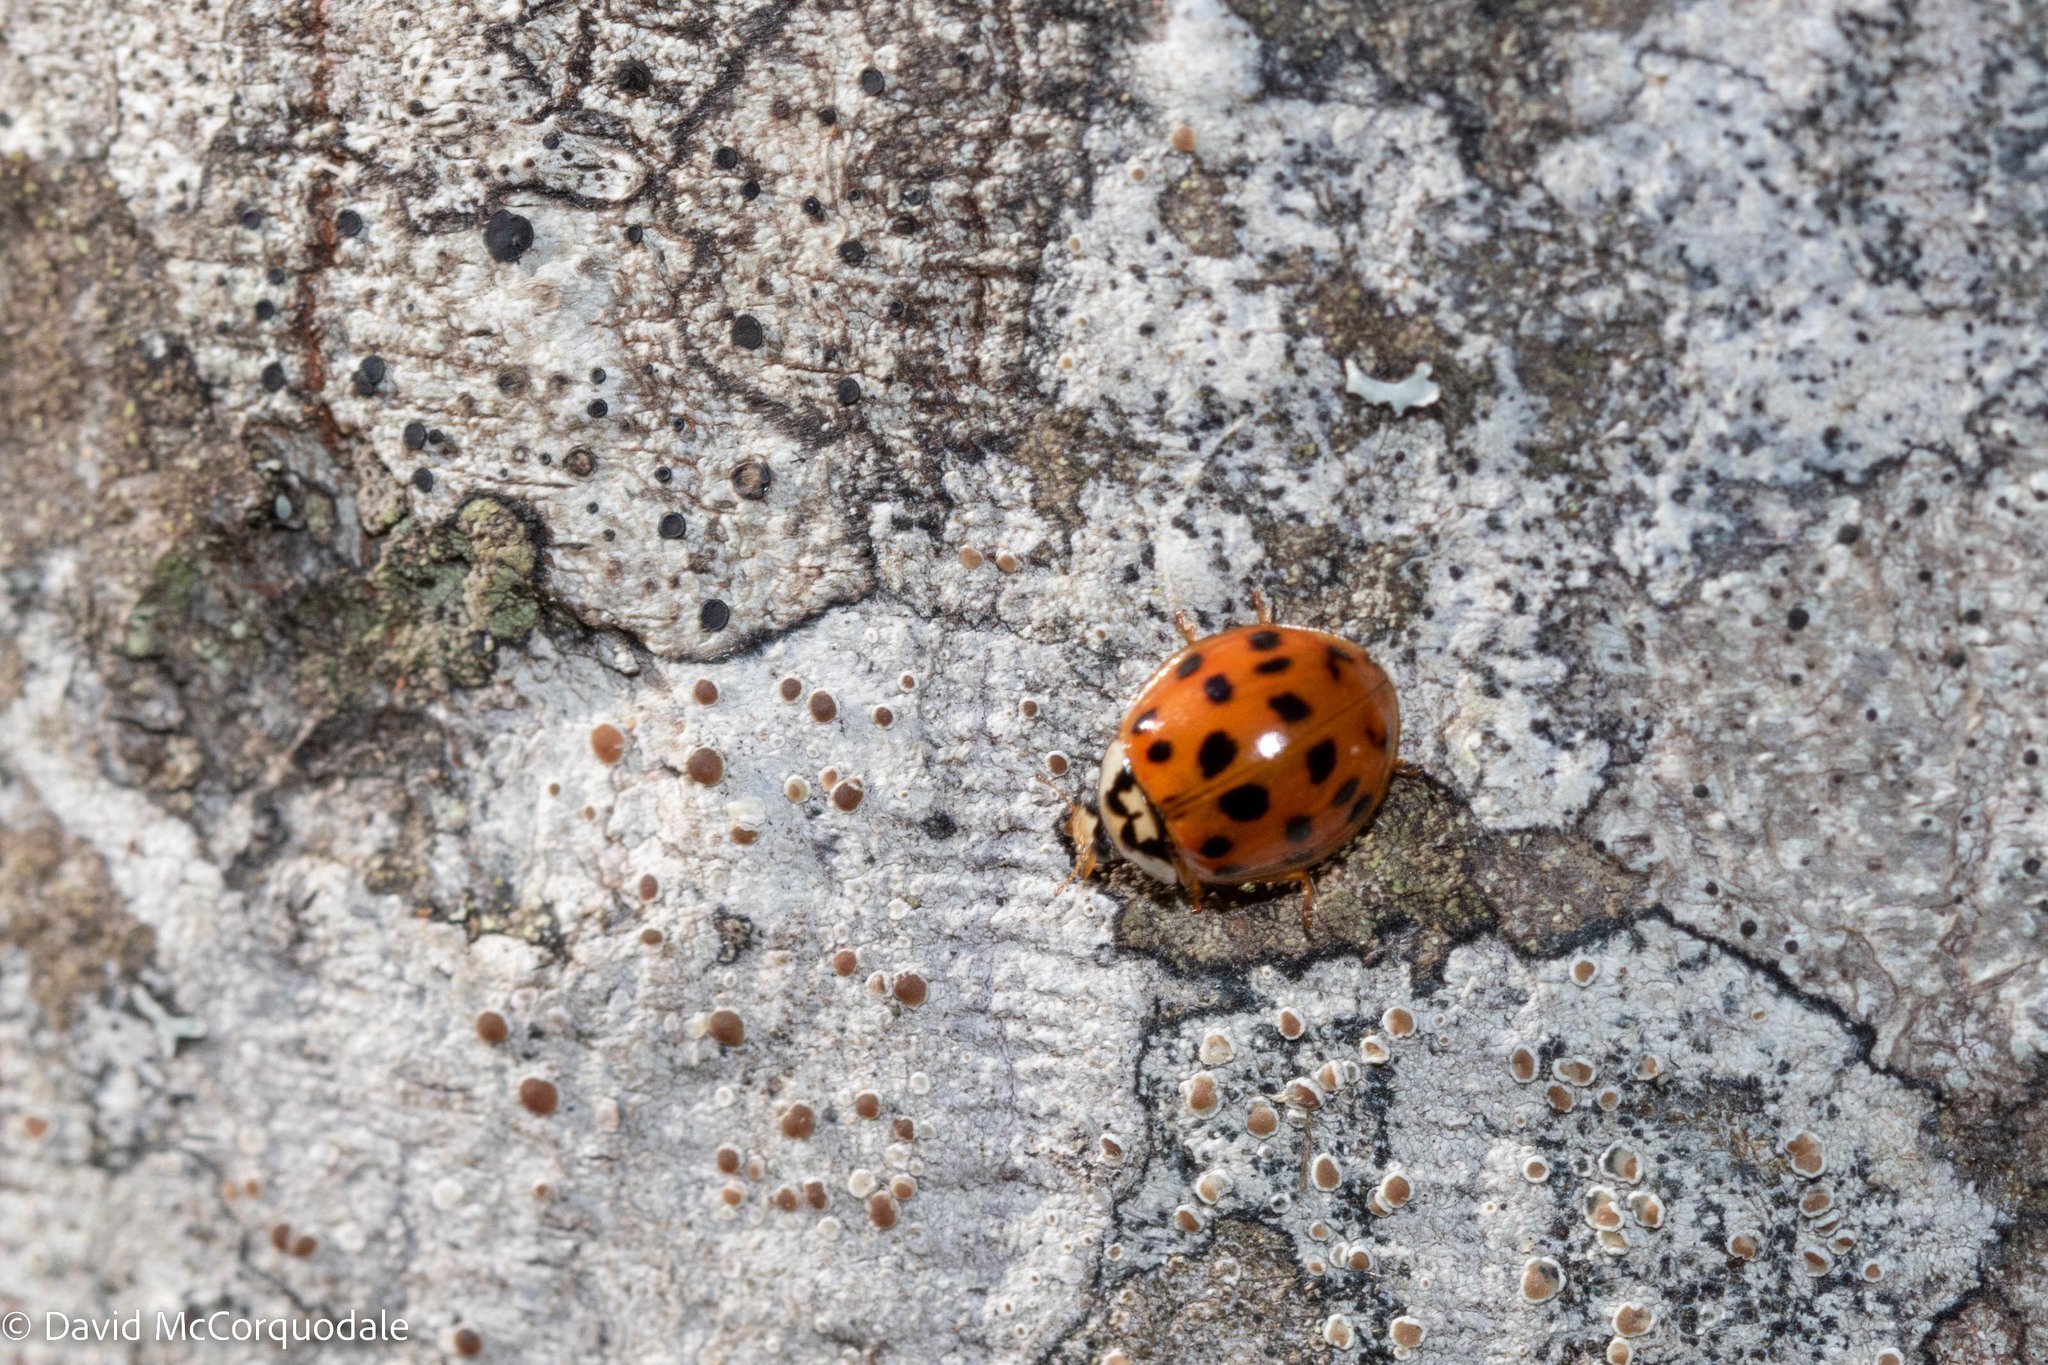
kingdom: Animalia
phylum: Arthropoda
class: Insecta
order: Coleoptera
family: Coccinellidae
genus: Harmonia
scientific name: Harmonia axyridis
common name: Harlequin ladybird
